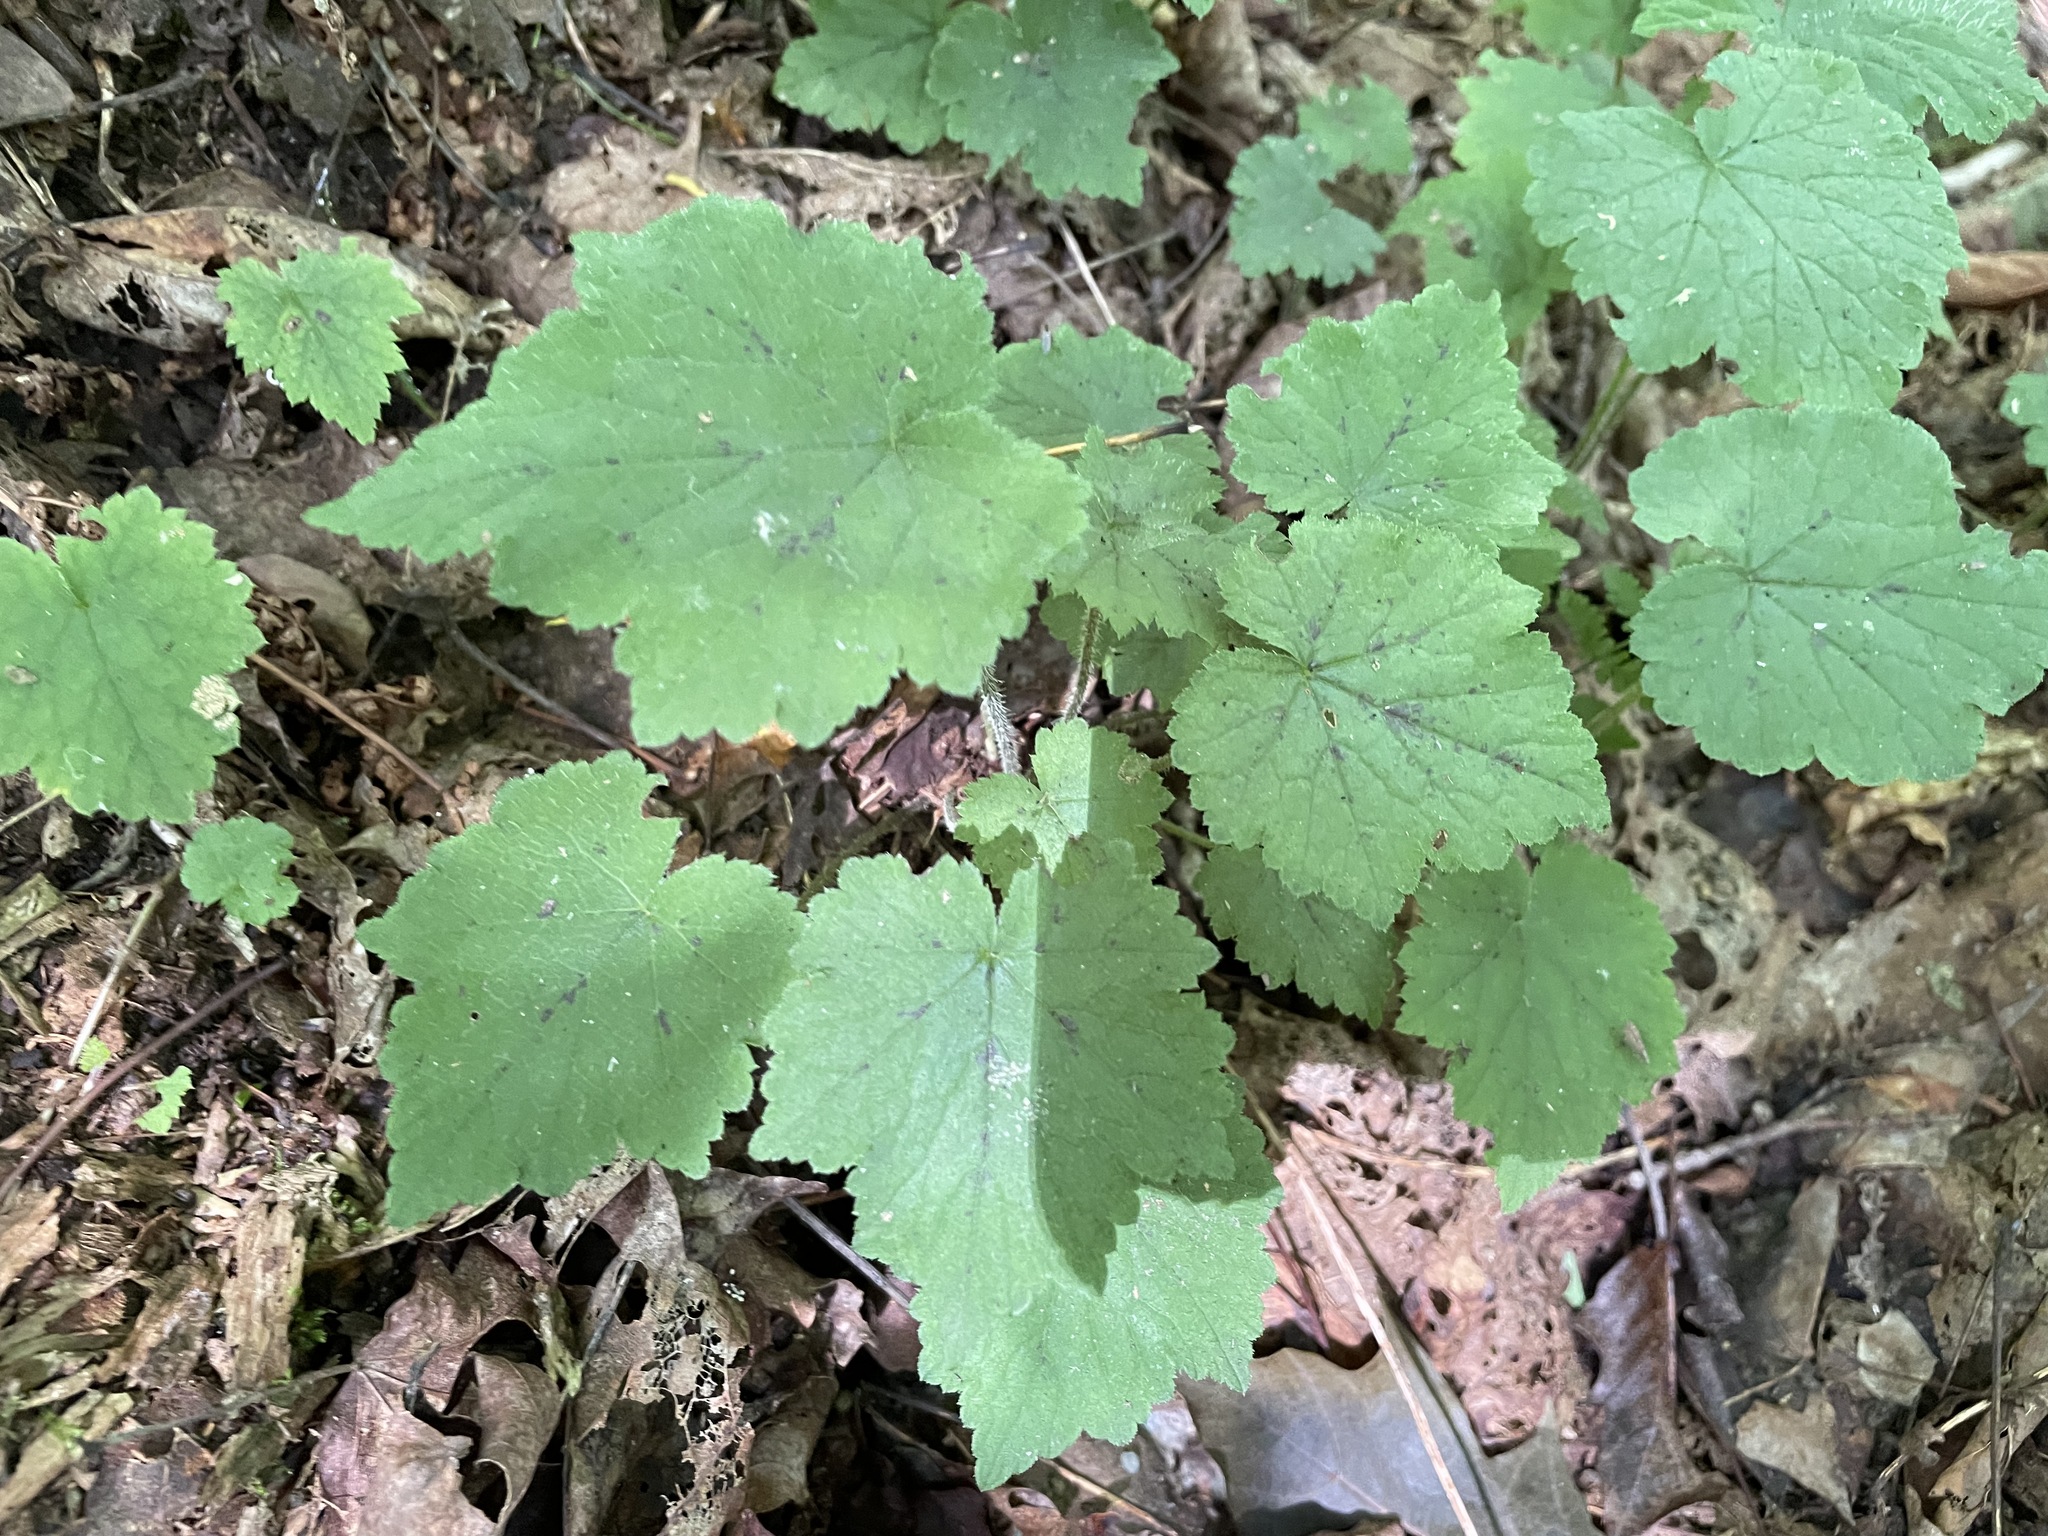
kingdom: Plantae
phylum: Tracheophyta
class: Magnoliopsida
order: Saxifragales
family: Saxifragaceae
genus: Tiarella
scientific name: Tiarella stolonifera
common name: Stoloniferous foamflower
